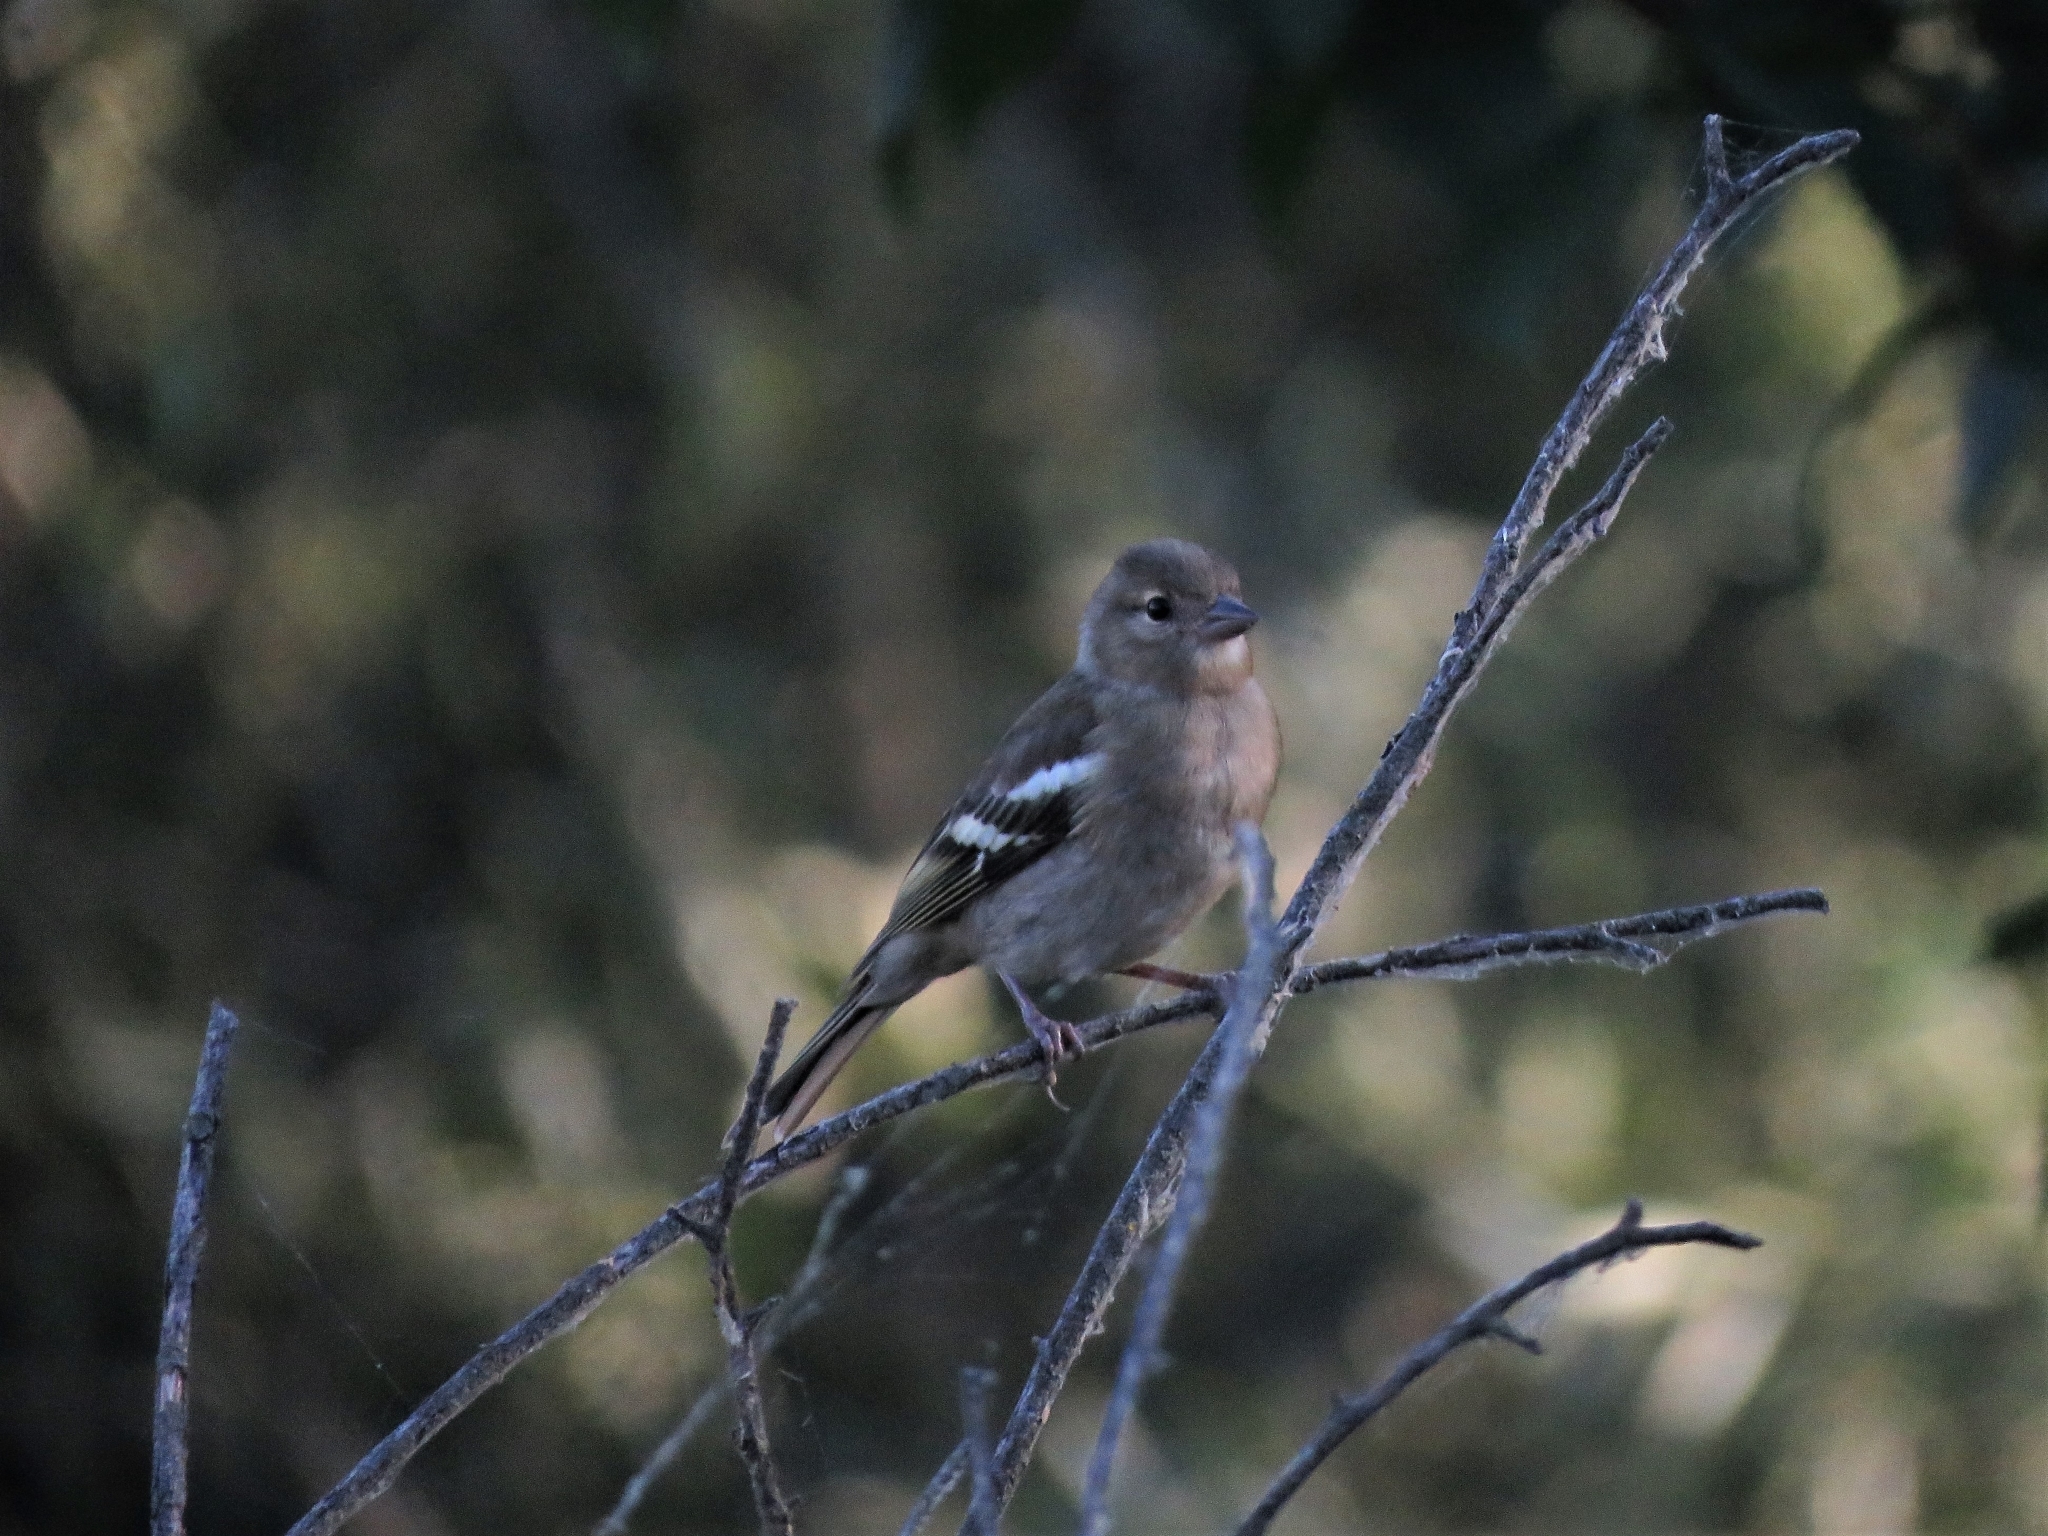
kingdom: Animalia
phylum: Chordata
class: Aves
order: Passeriformes
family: Fringillidae
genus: Fringilla
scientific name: Fringilla coelebs
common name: Common chaffinch
